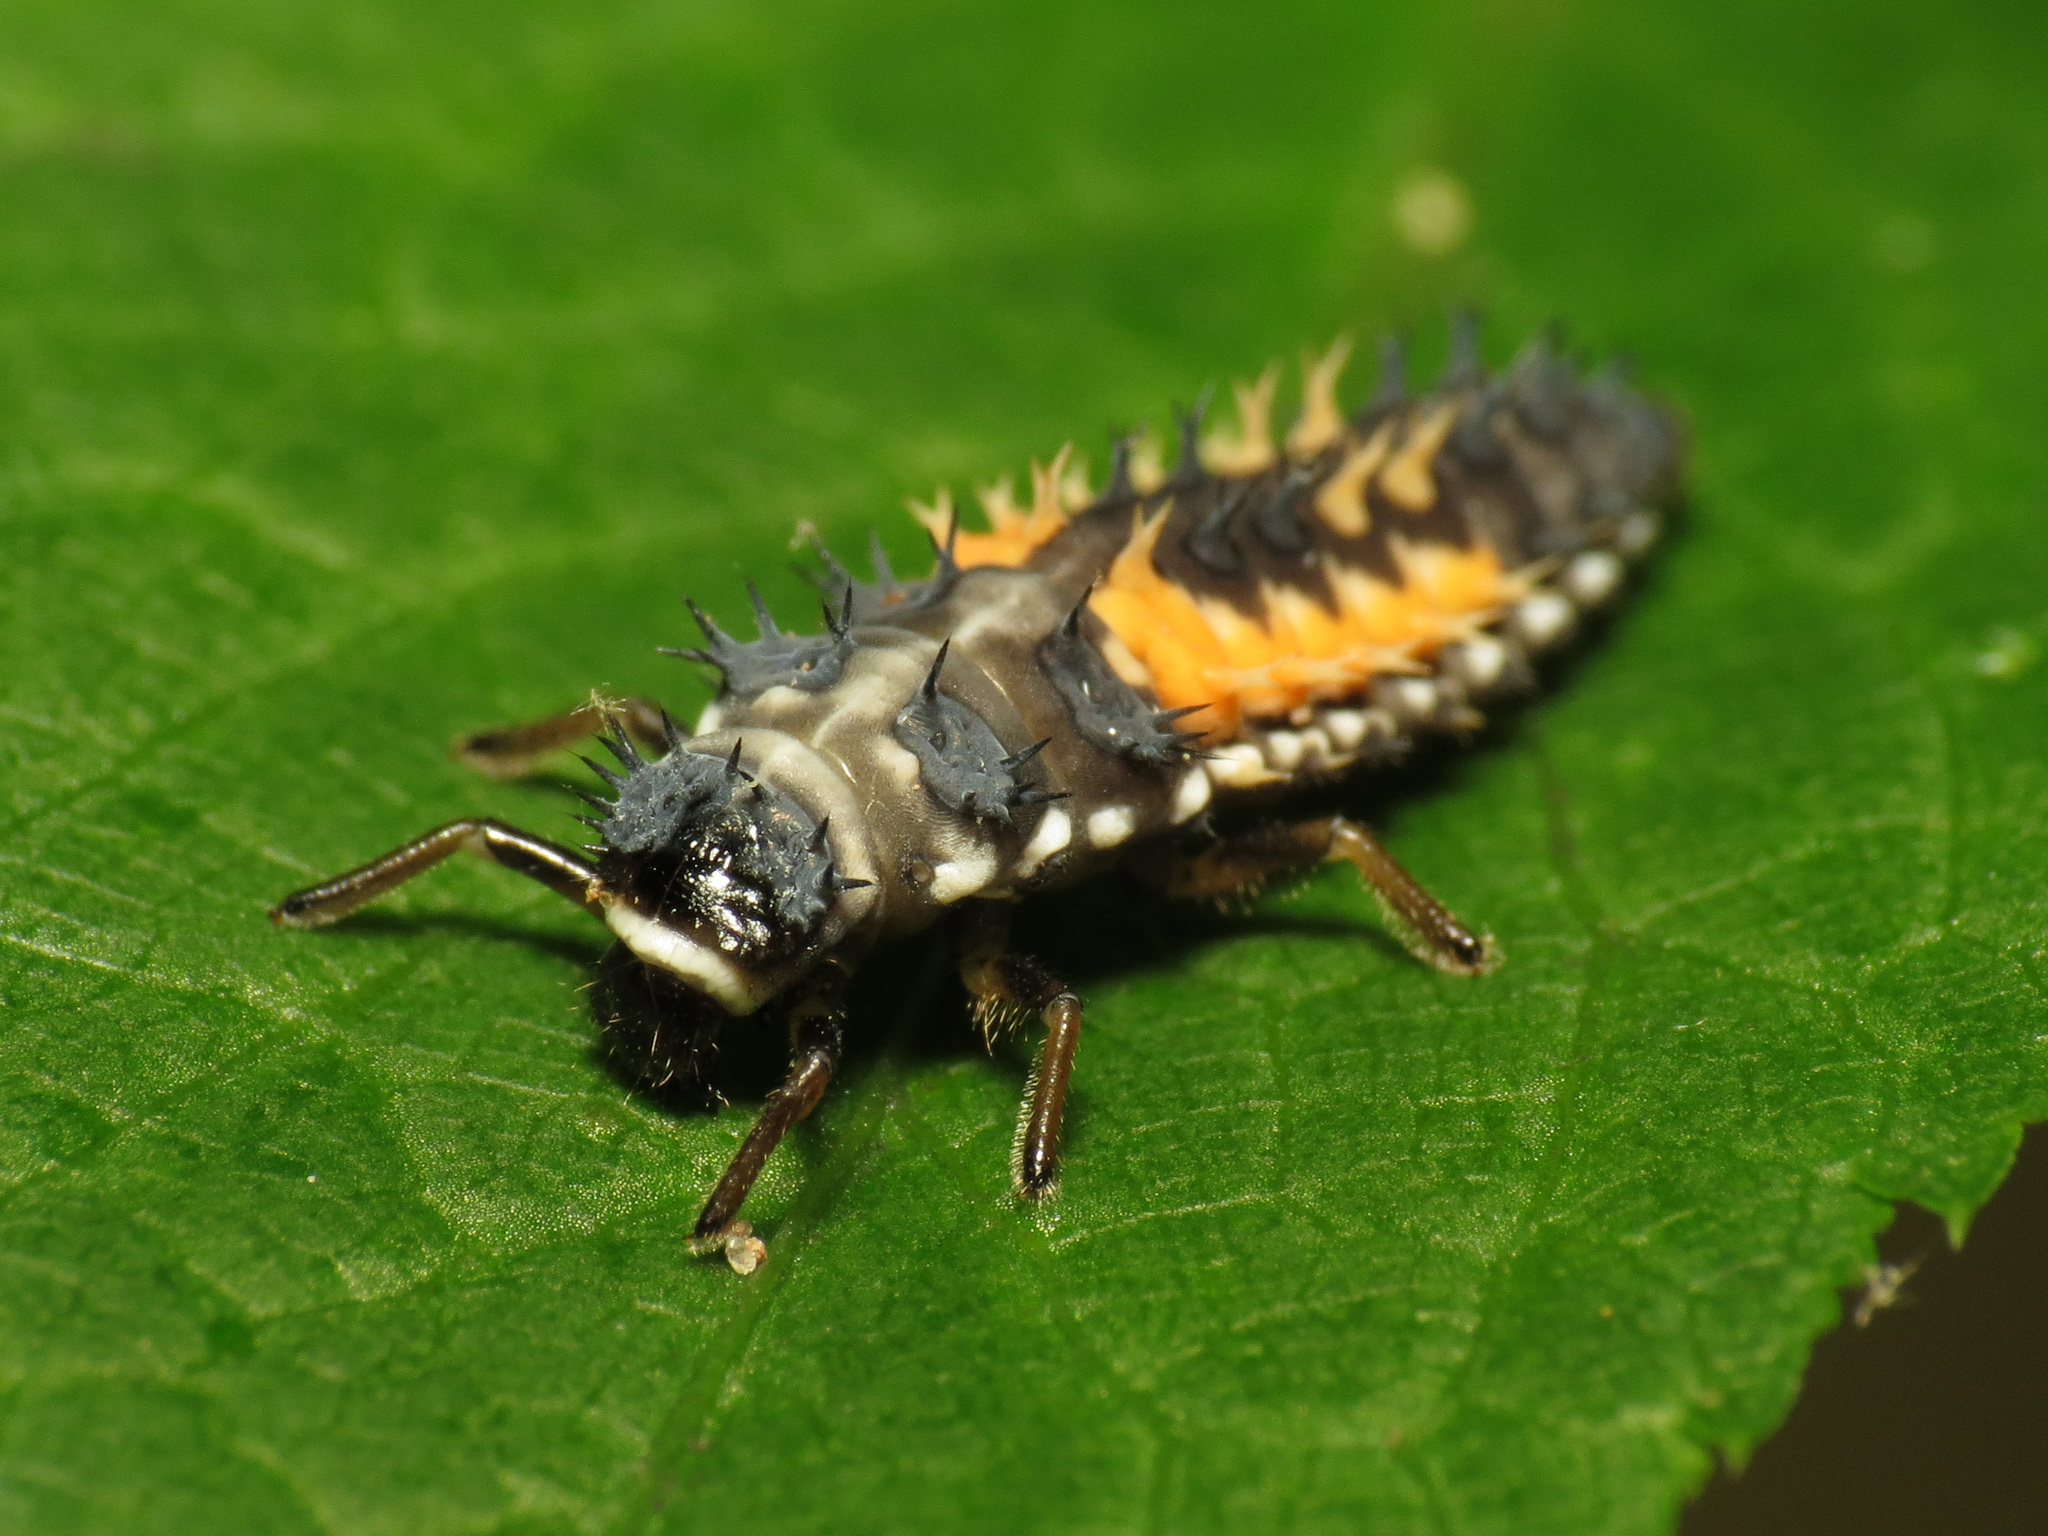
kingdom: Animalia
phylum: Arthropoda
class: Insecta
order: Coleoptera
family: Coccinellidae
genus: Harmonia
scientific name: Harmonia axyridis
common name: Harlequin ladybird
